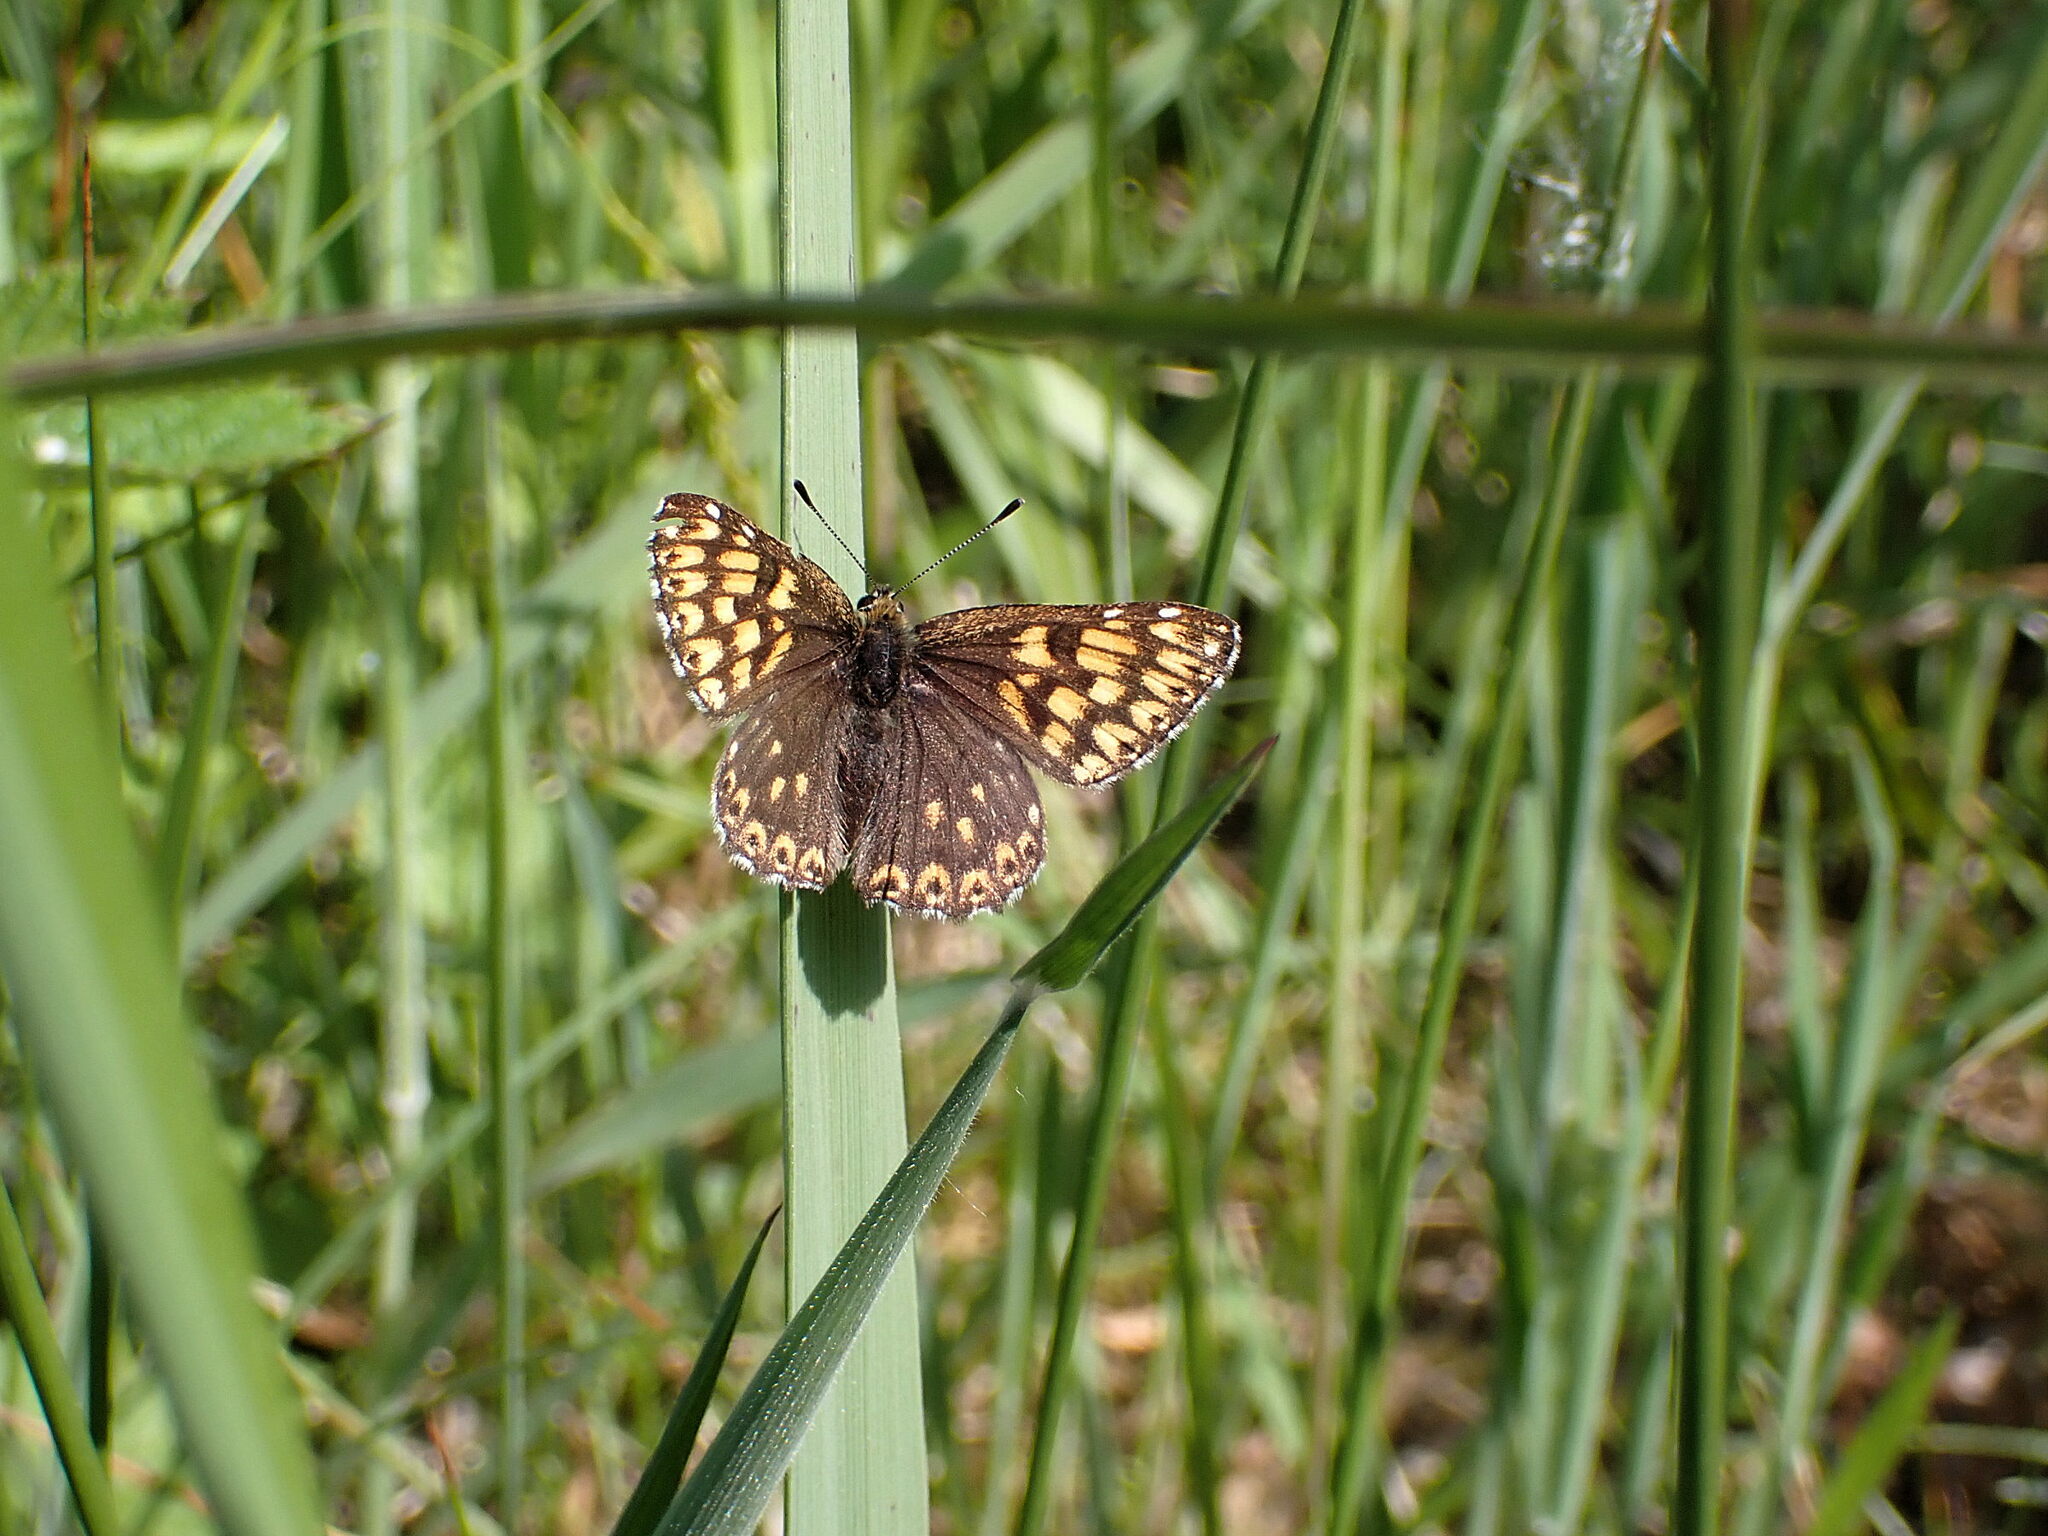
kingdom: Animalia
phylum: Arthropoda
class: Insecta
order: Lepidoptera
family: Riodinidae
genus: Hamearis
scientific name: Hamearis lucina
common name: Duke of burgundy fritillary
